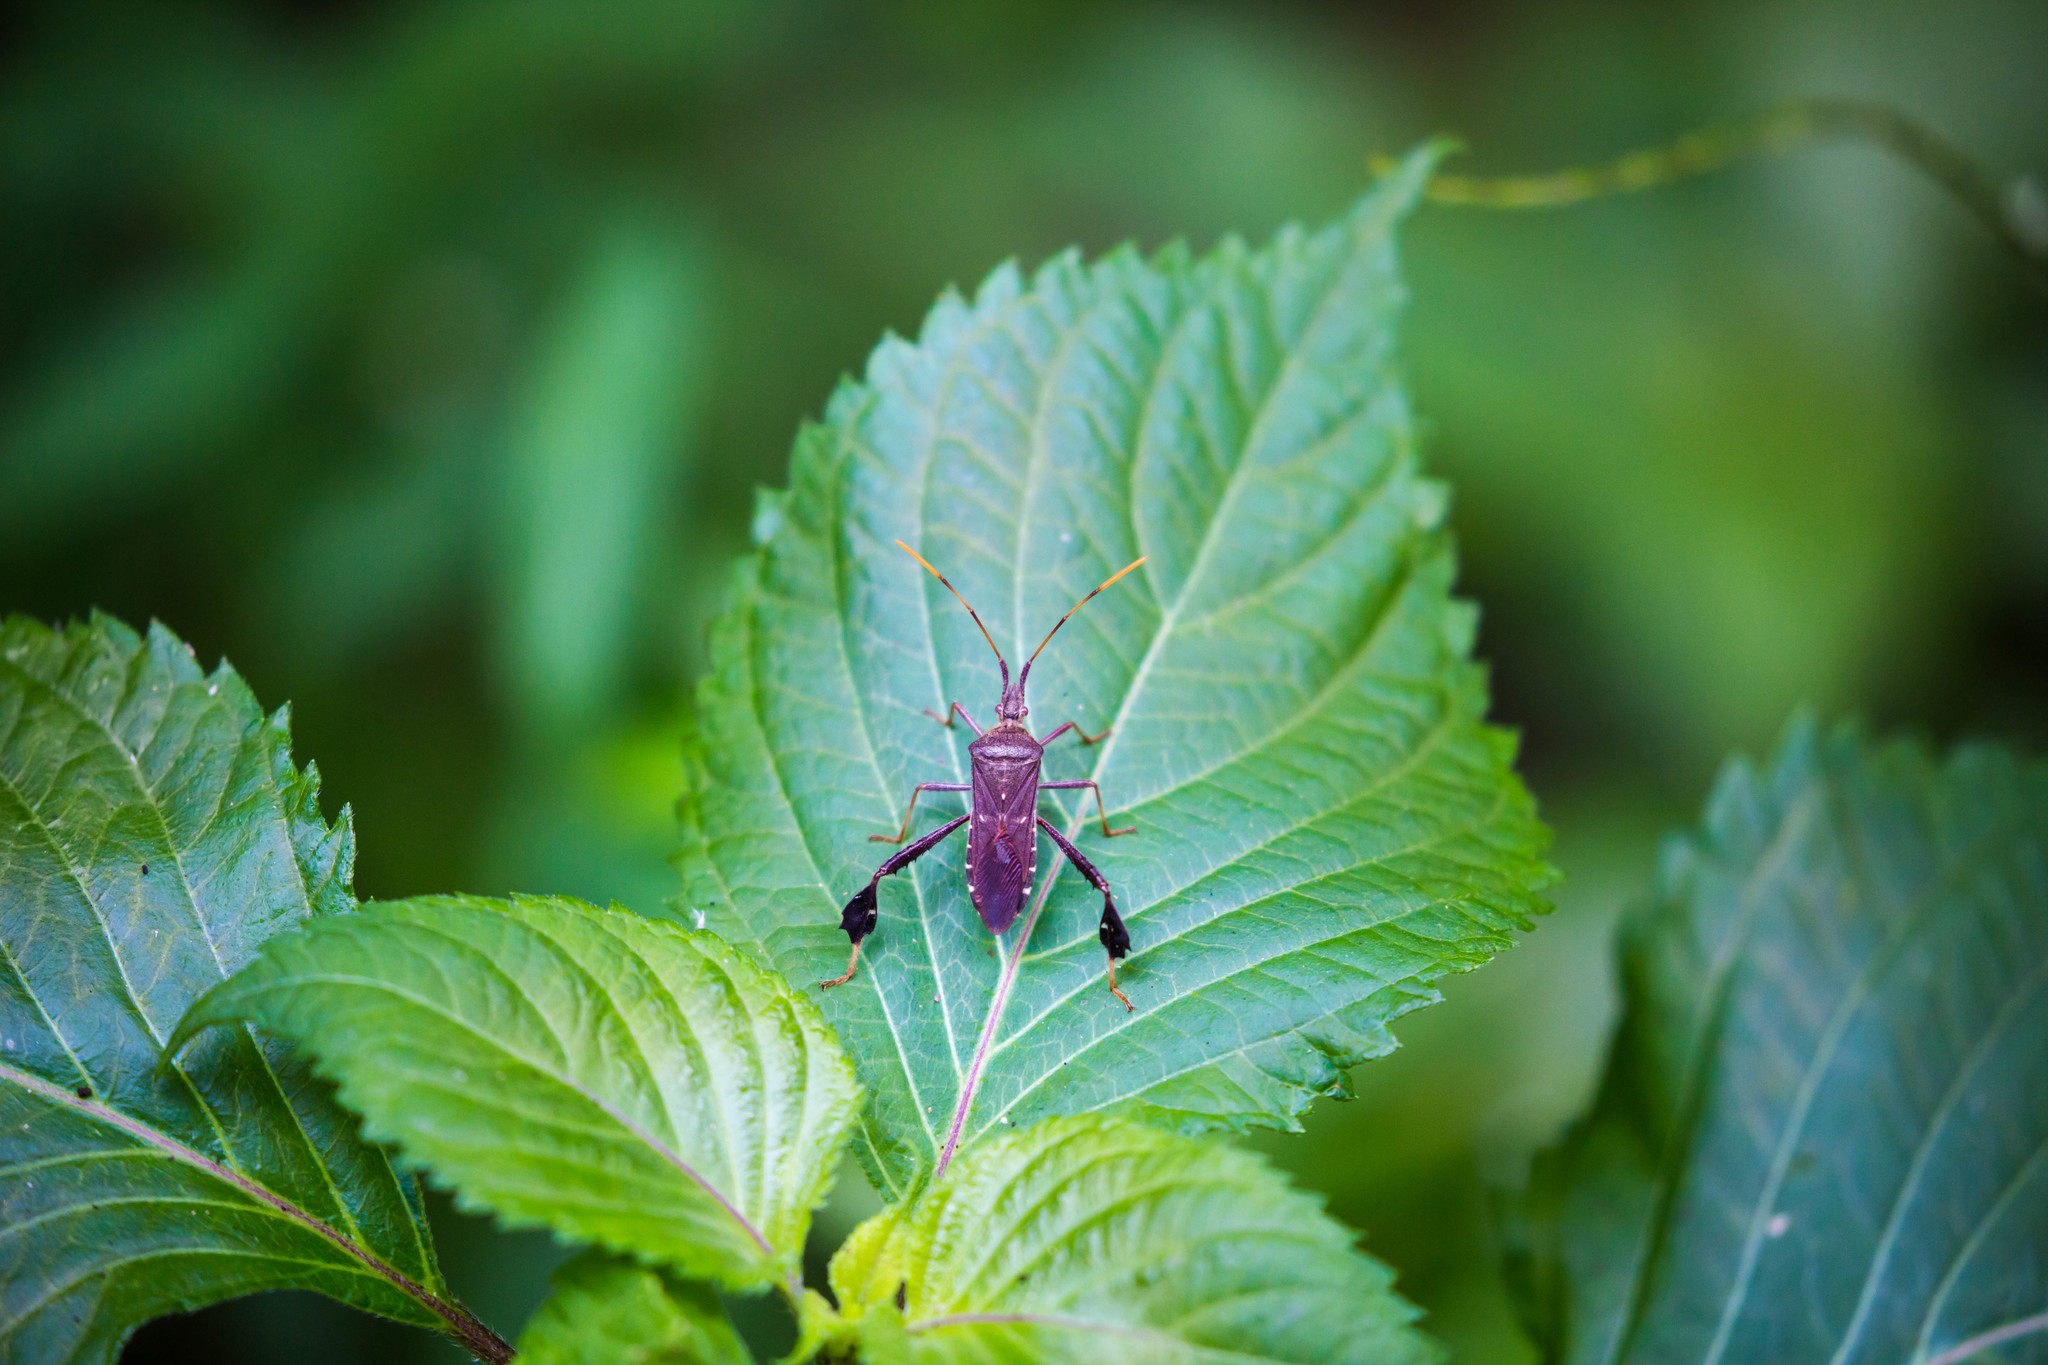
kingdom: Animalia
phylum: Arthropoda
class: Insecta
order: Hemiptera
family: Coreidae
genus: Leptoglossus
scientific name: Leptoglossus oppositus
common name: Northern leaf-footed bug
